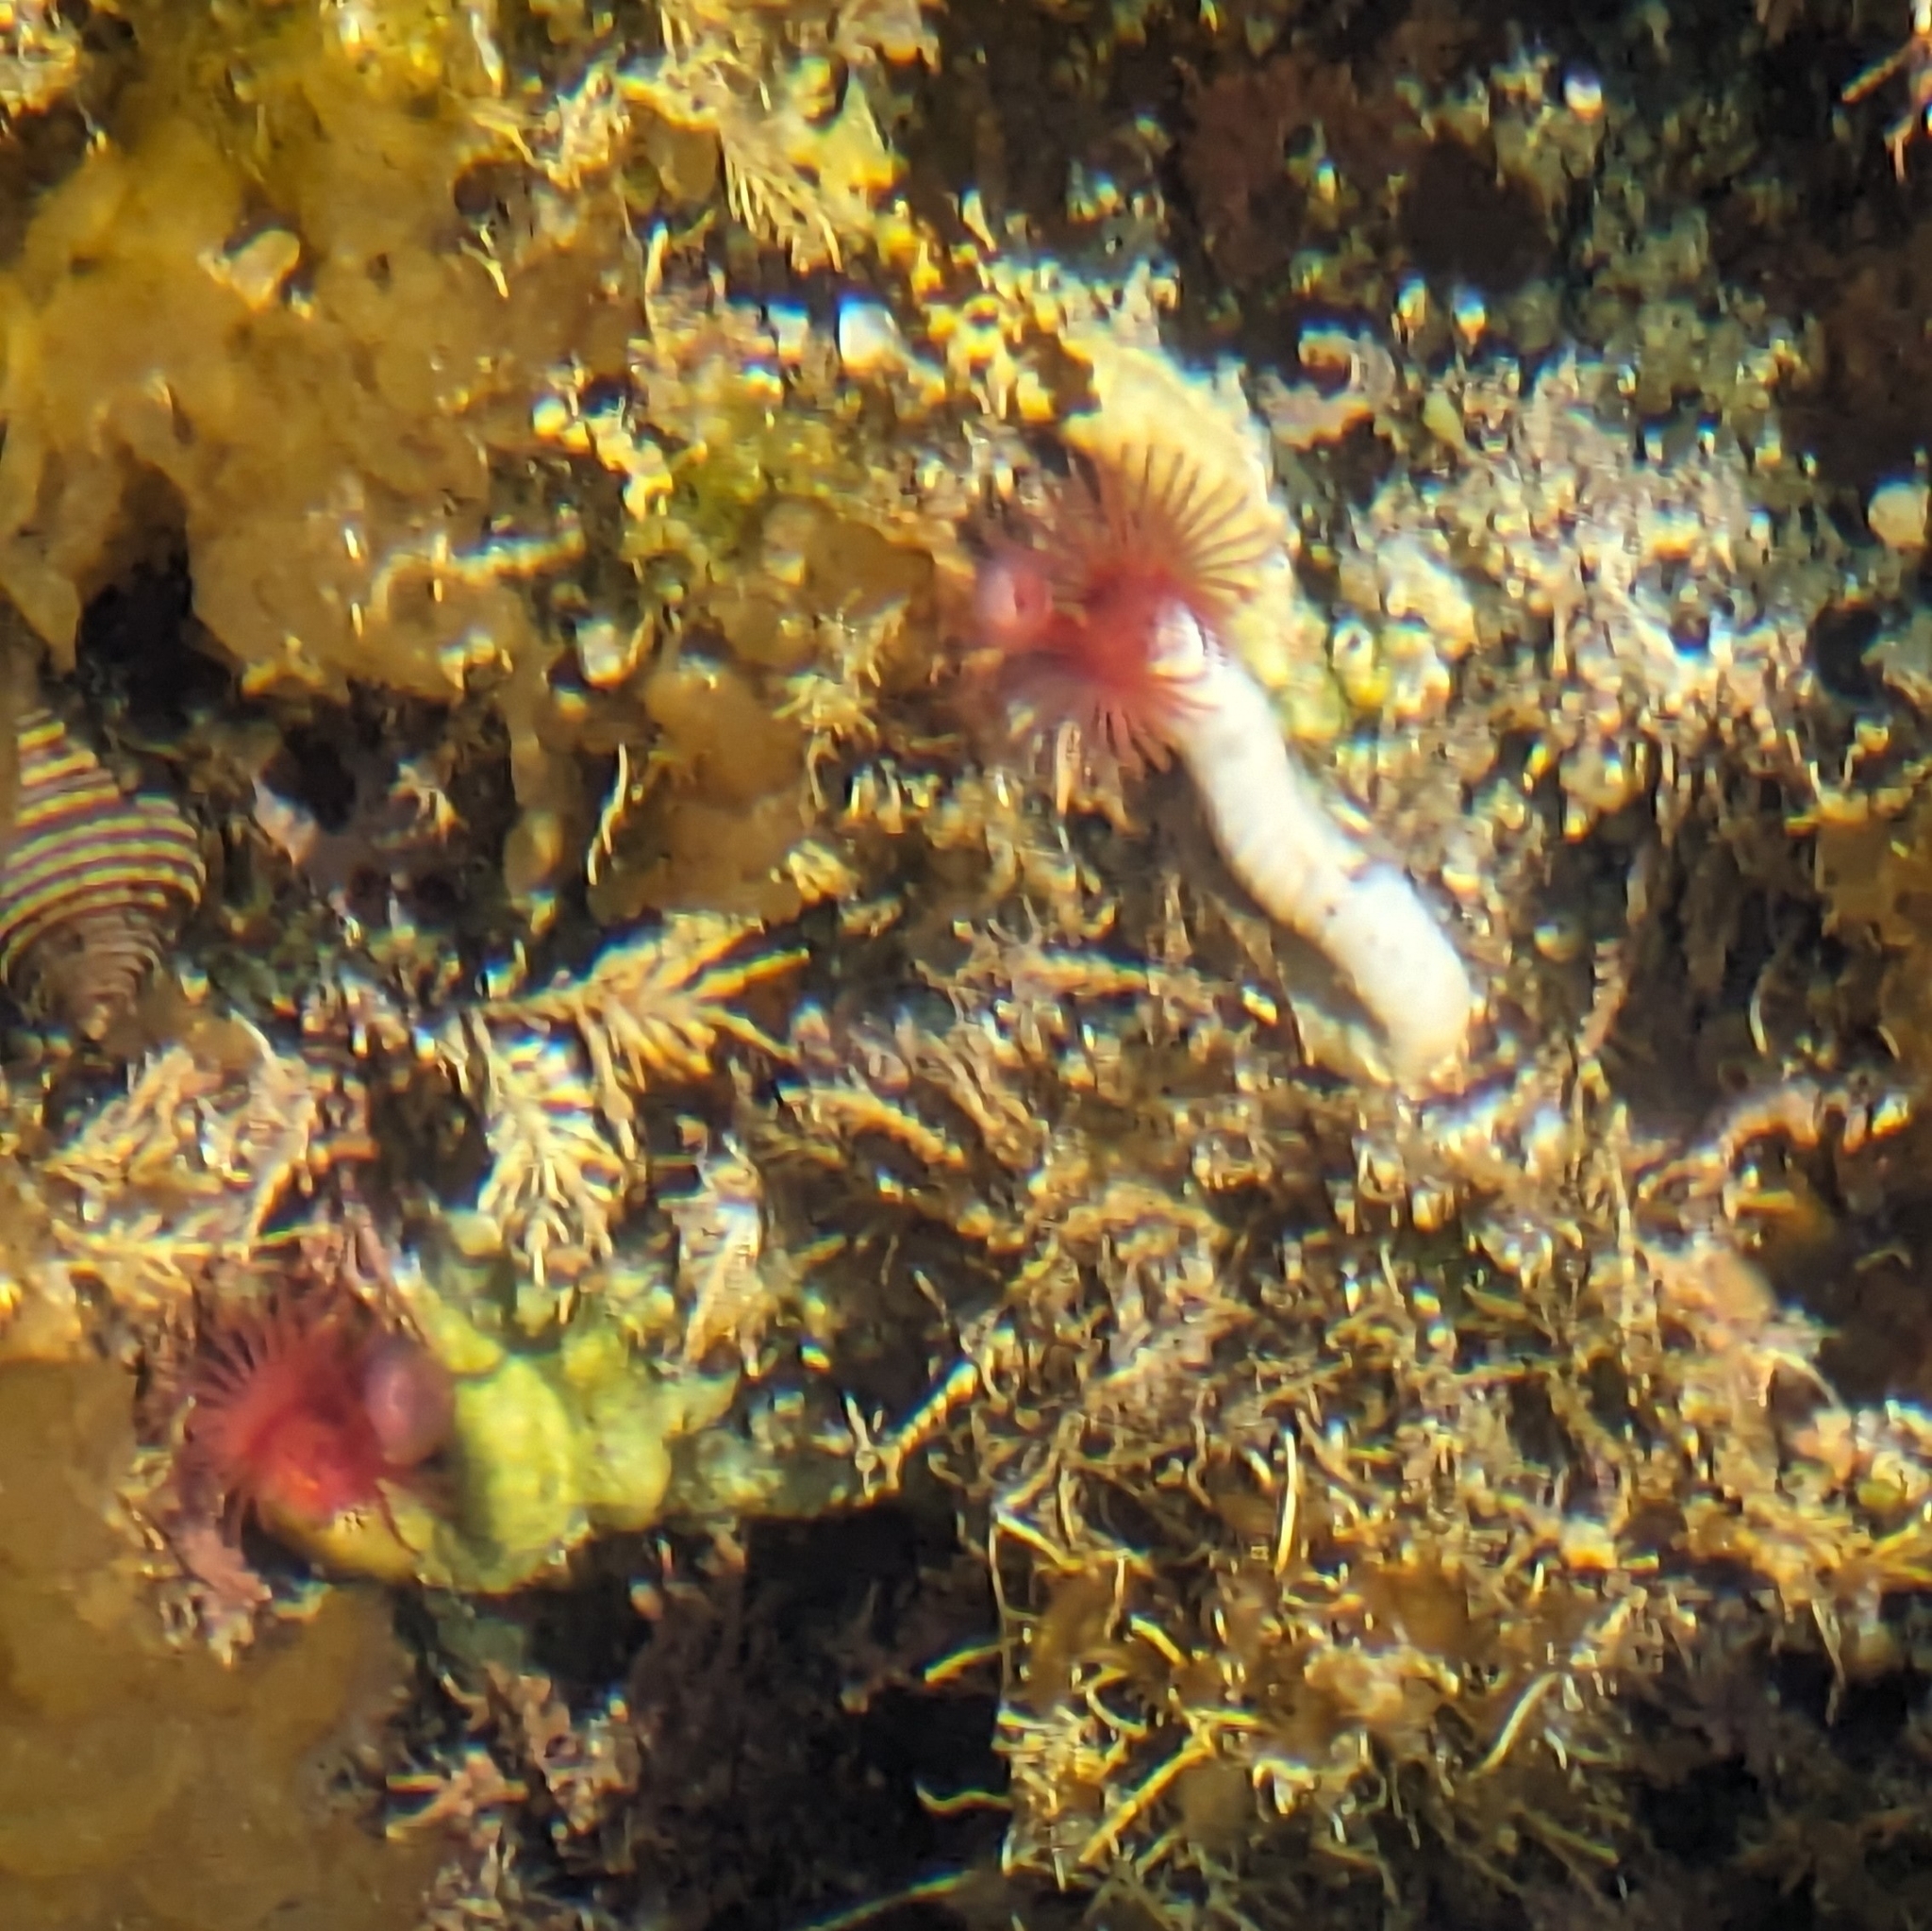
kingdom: Animalia
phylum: Annelida
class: Polychaeta
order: Sabellida
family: Serpulidae
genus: Serpula
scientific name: Serpula columbiana
